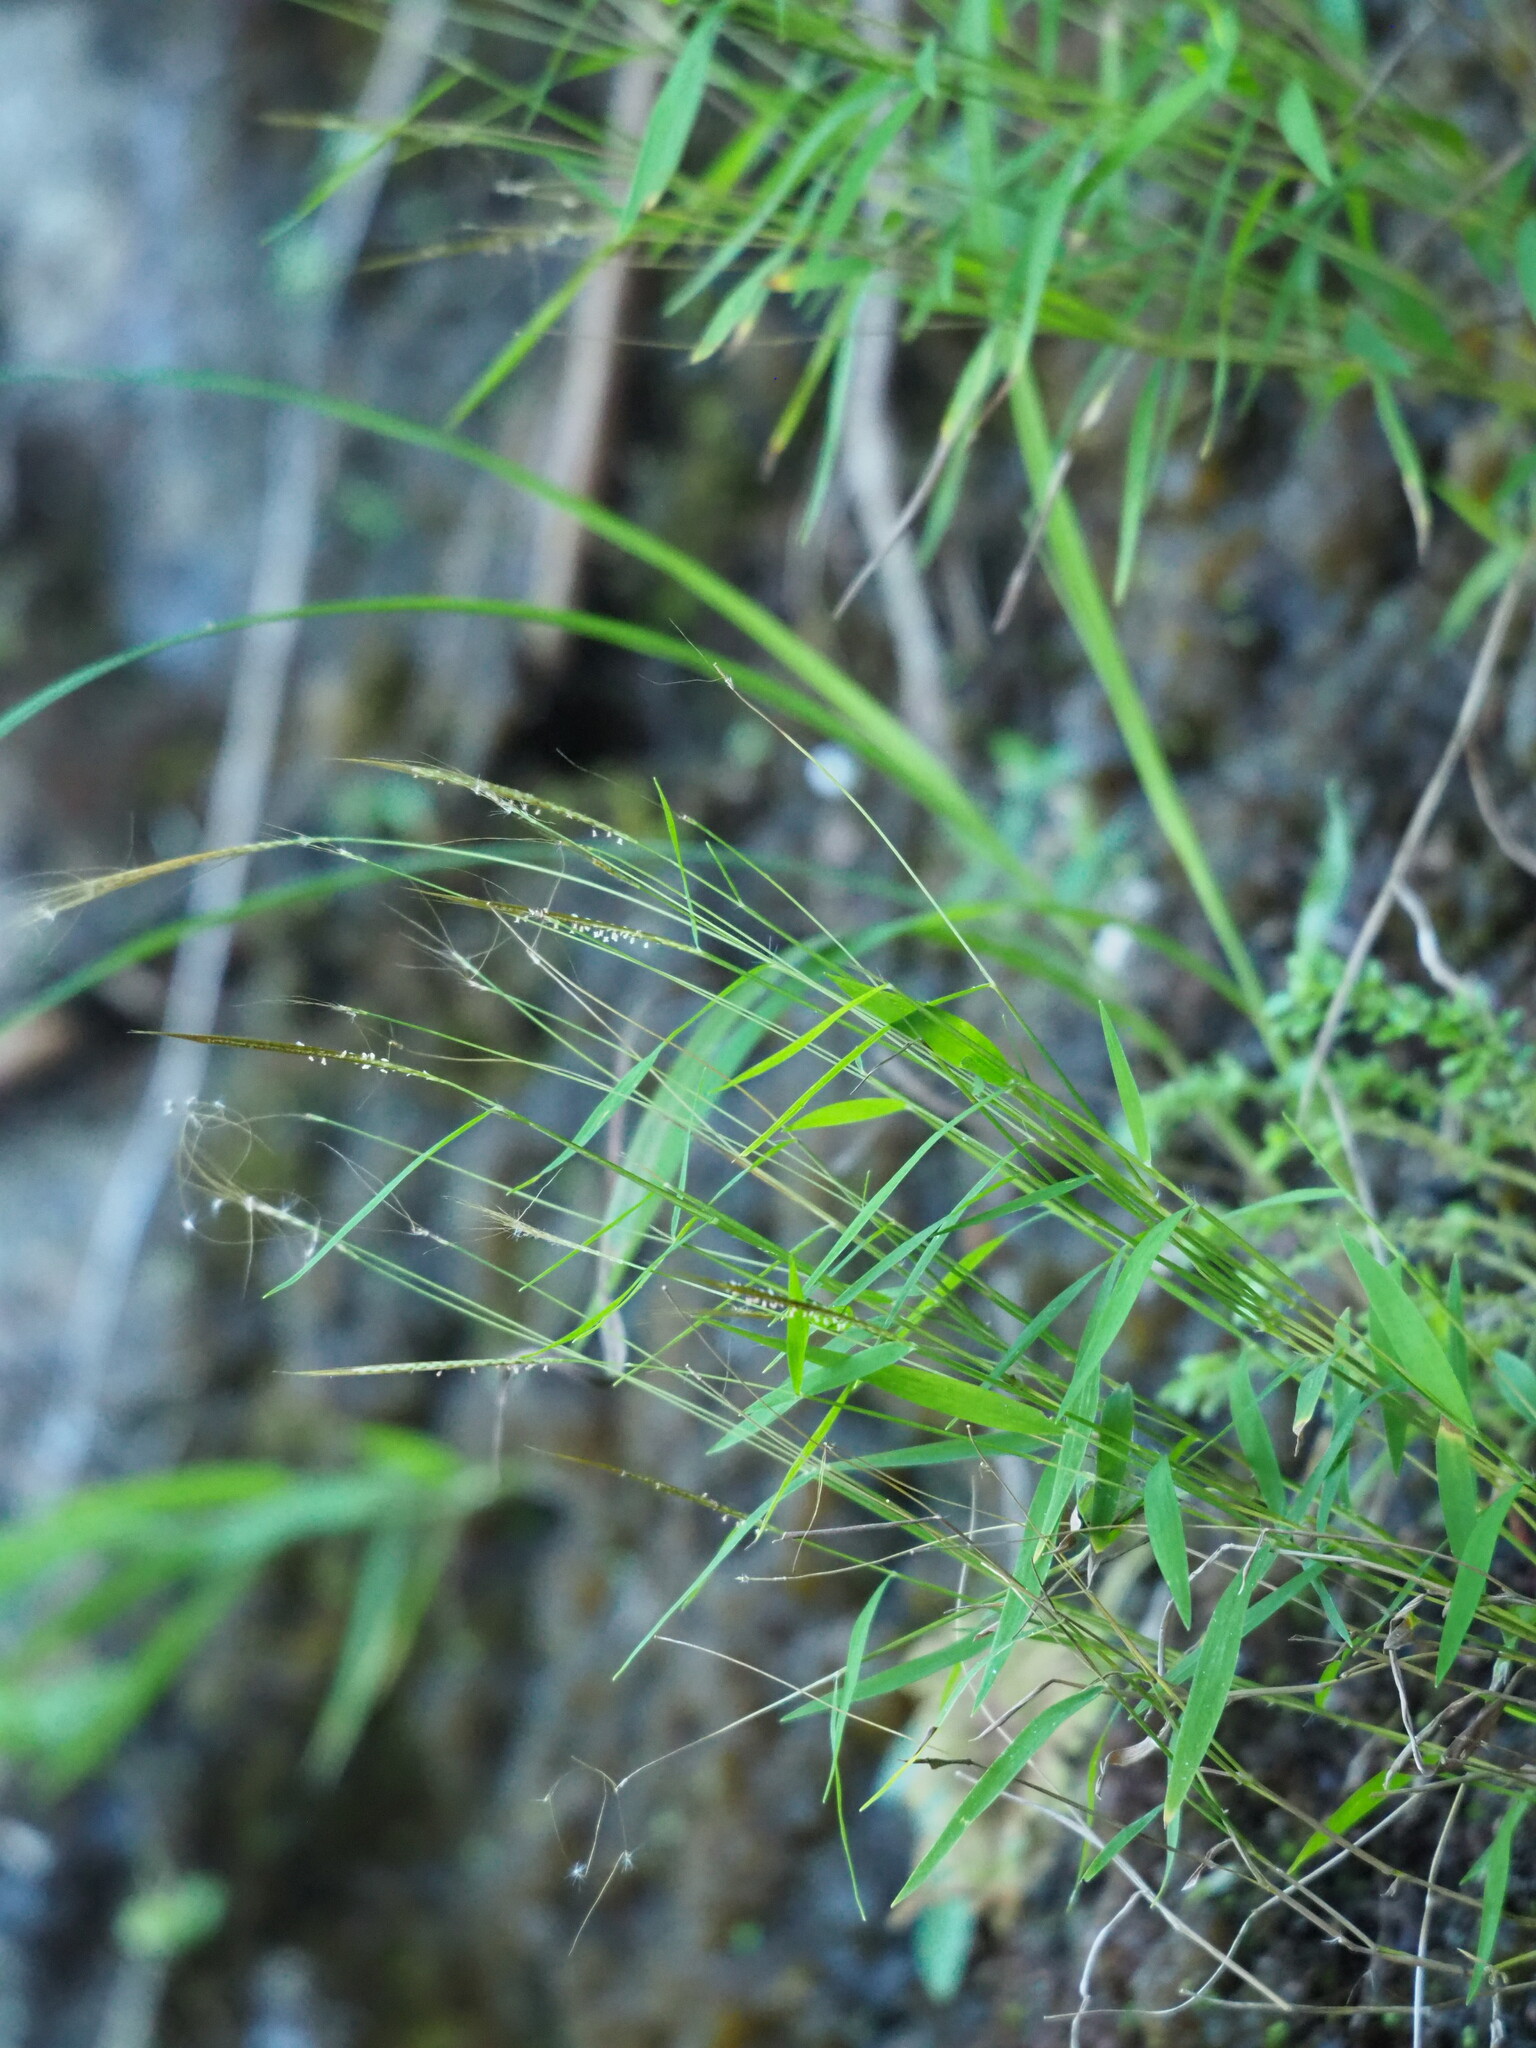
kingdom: Plantae
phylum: Tracheophyta
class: Liliopsida
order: Poales
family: Poaceae
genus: Pogonatherum
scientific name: Pogonatherum crinitum
